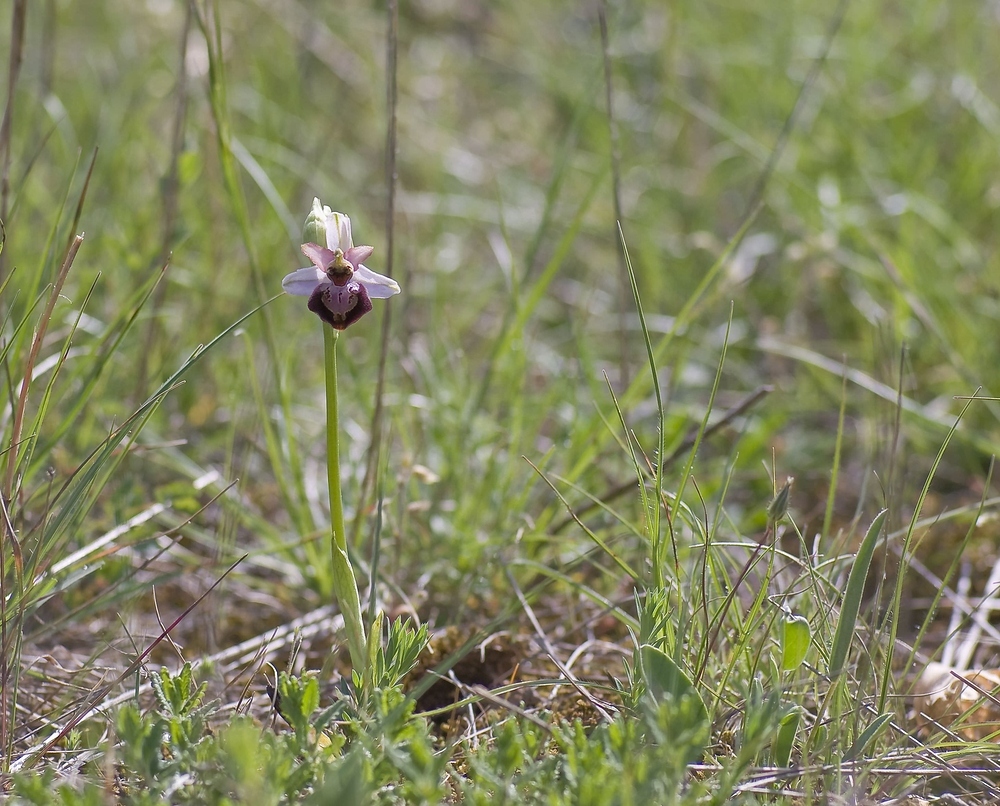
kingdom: Plantae
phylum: Tracheophyta
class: Liliopsida
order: Asparagales
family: Orchidaceae
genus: Ophrys
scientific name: Ophrys sphegodes
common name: Early spider-orchid
